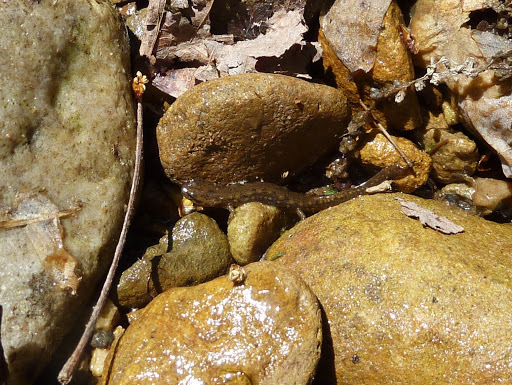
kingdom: Animalia
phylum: Chordata
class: Amphibia
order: Caudata
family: Plethodontidae
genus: Eurycea
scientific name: Eurycea bislineata
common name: Northern two-lined salamander
